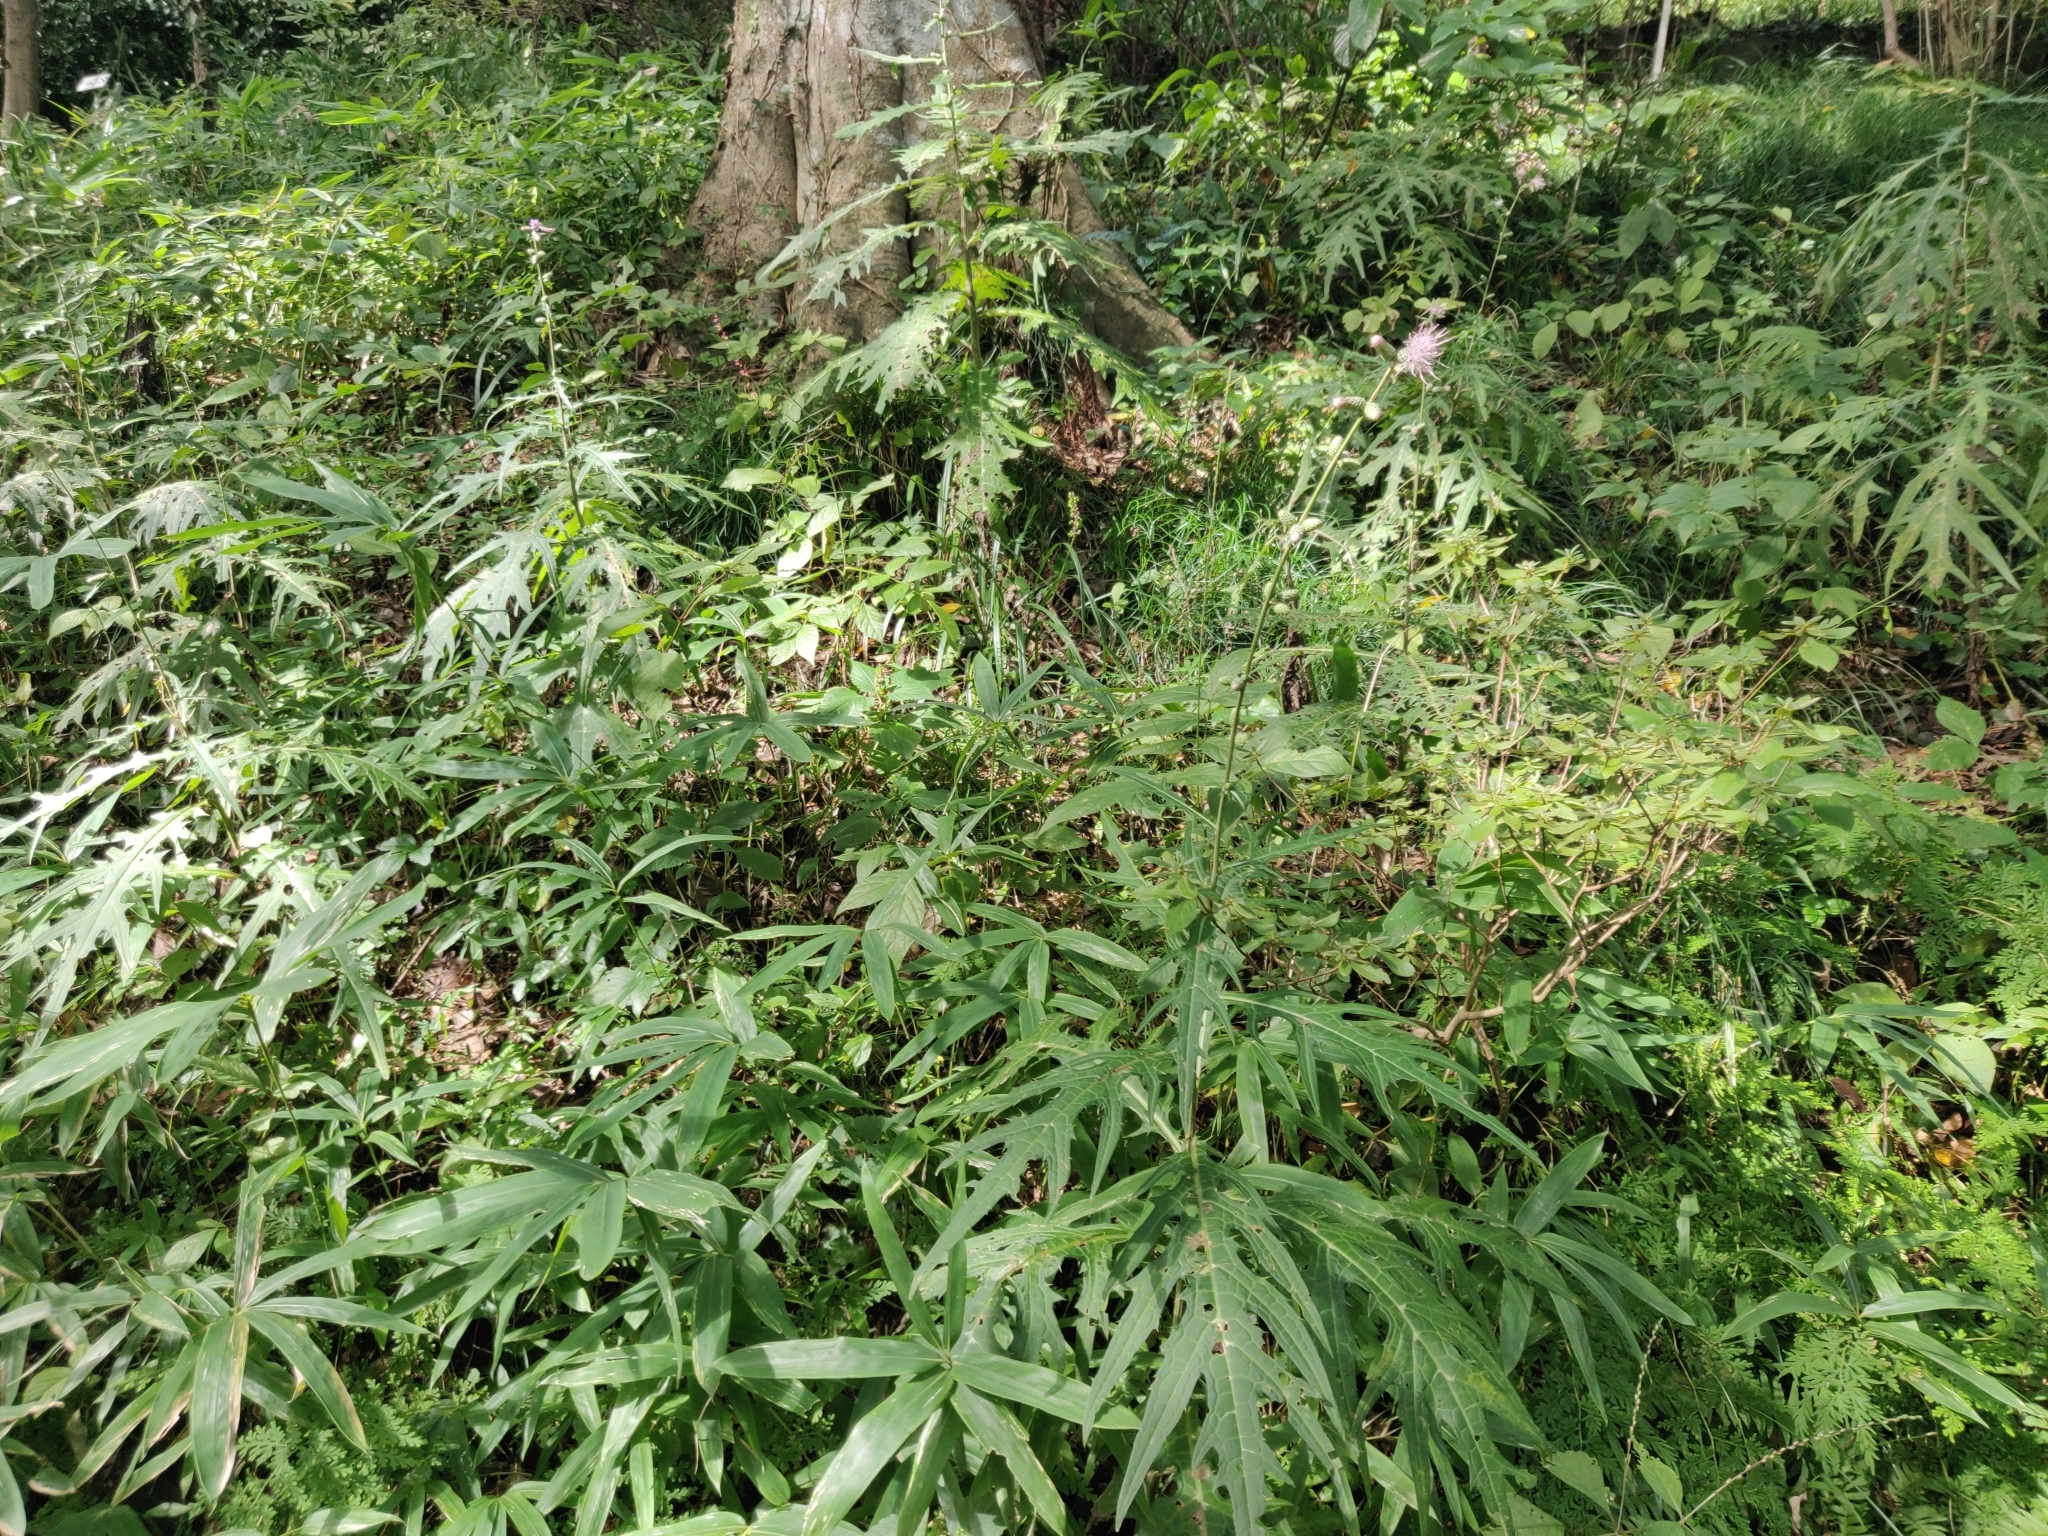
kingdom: Plantae
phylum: Tracheophyta
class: Magnoliopsida
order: Asterales
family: Asteraceae
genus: Cirsium
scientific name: Cirsium microspicatum
